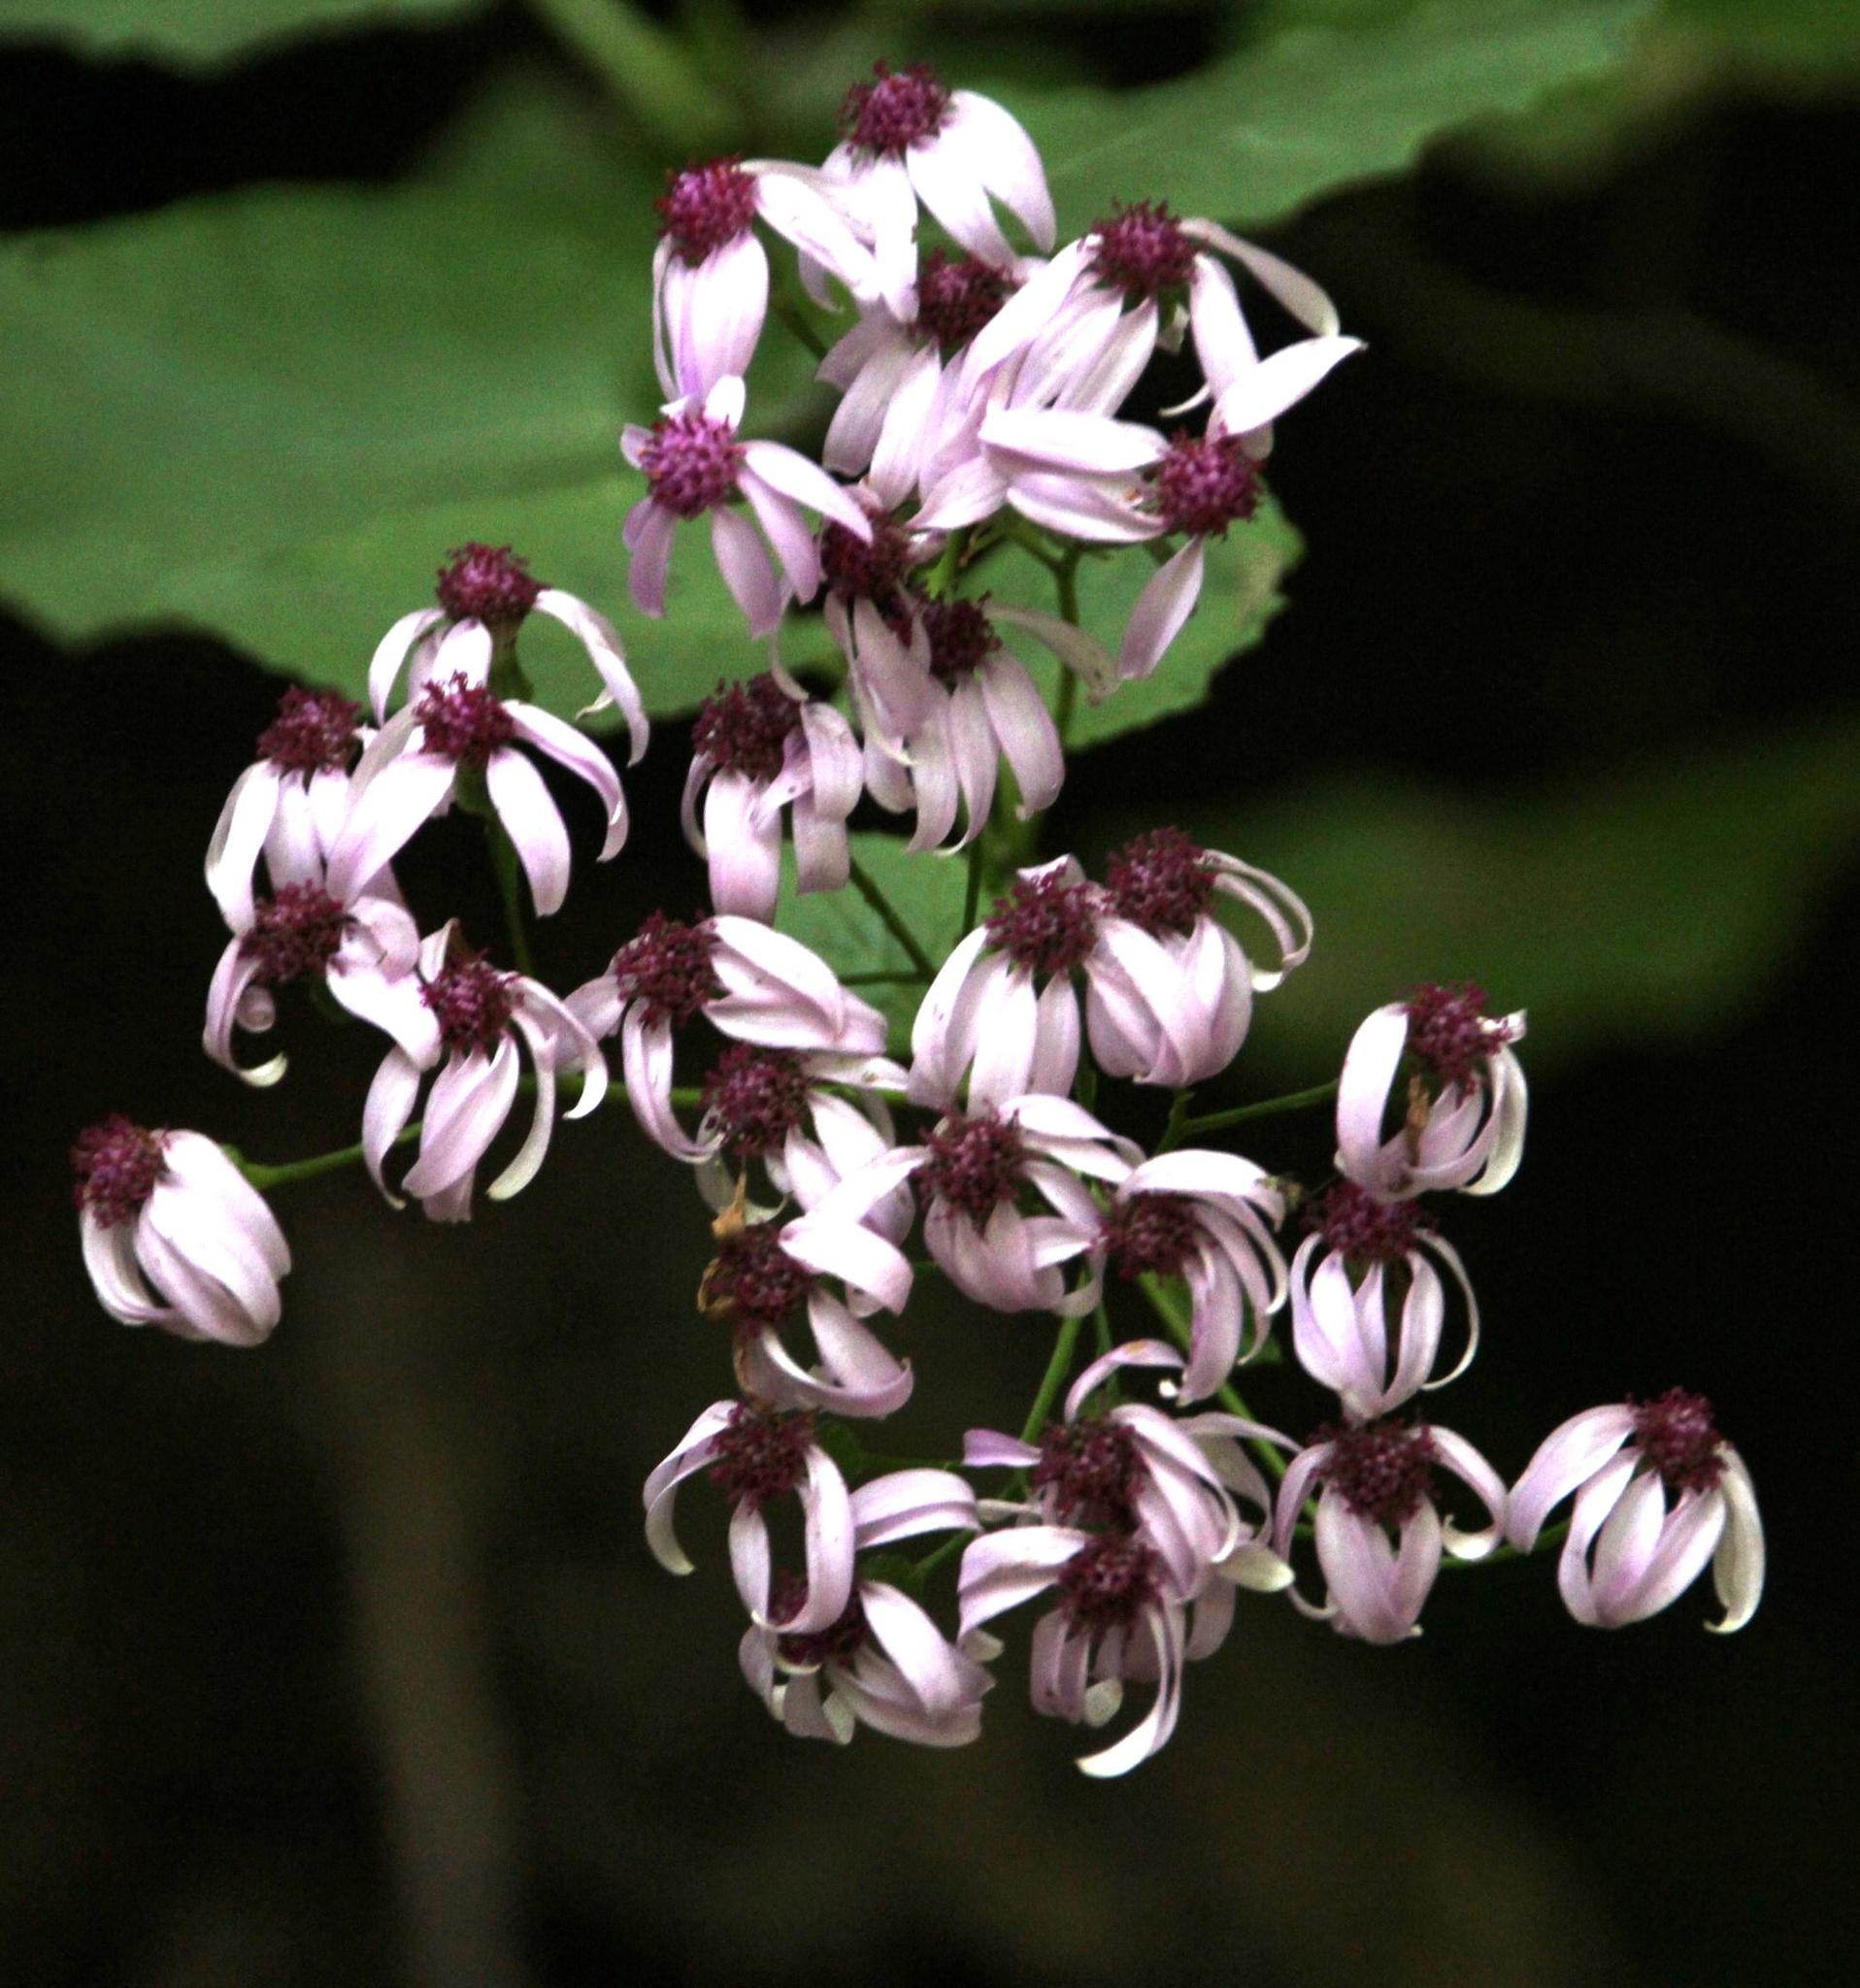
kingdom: Plantae
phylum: Tracheophyta
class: Magnoliopsida
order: Asterales
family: Asteraceae
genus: Pericallis
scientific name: Pericallis aurita
